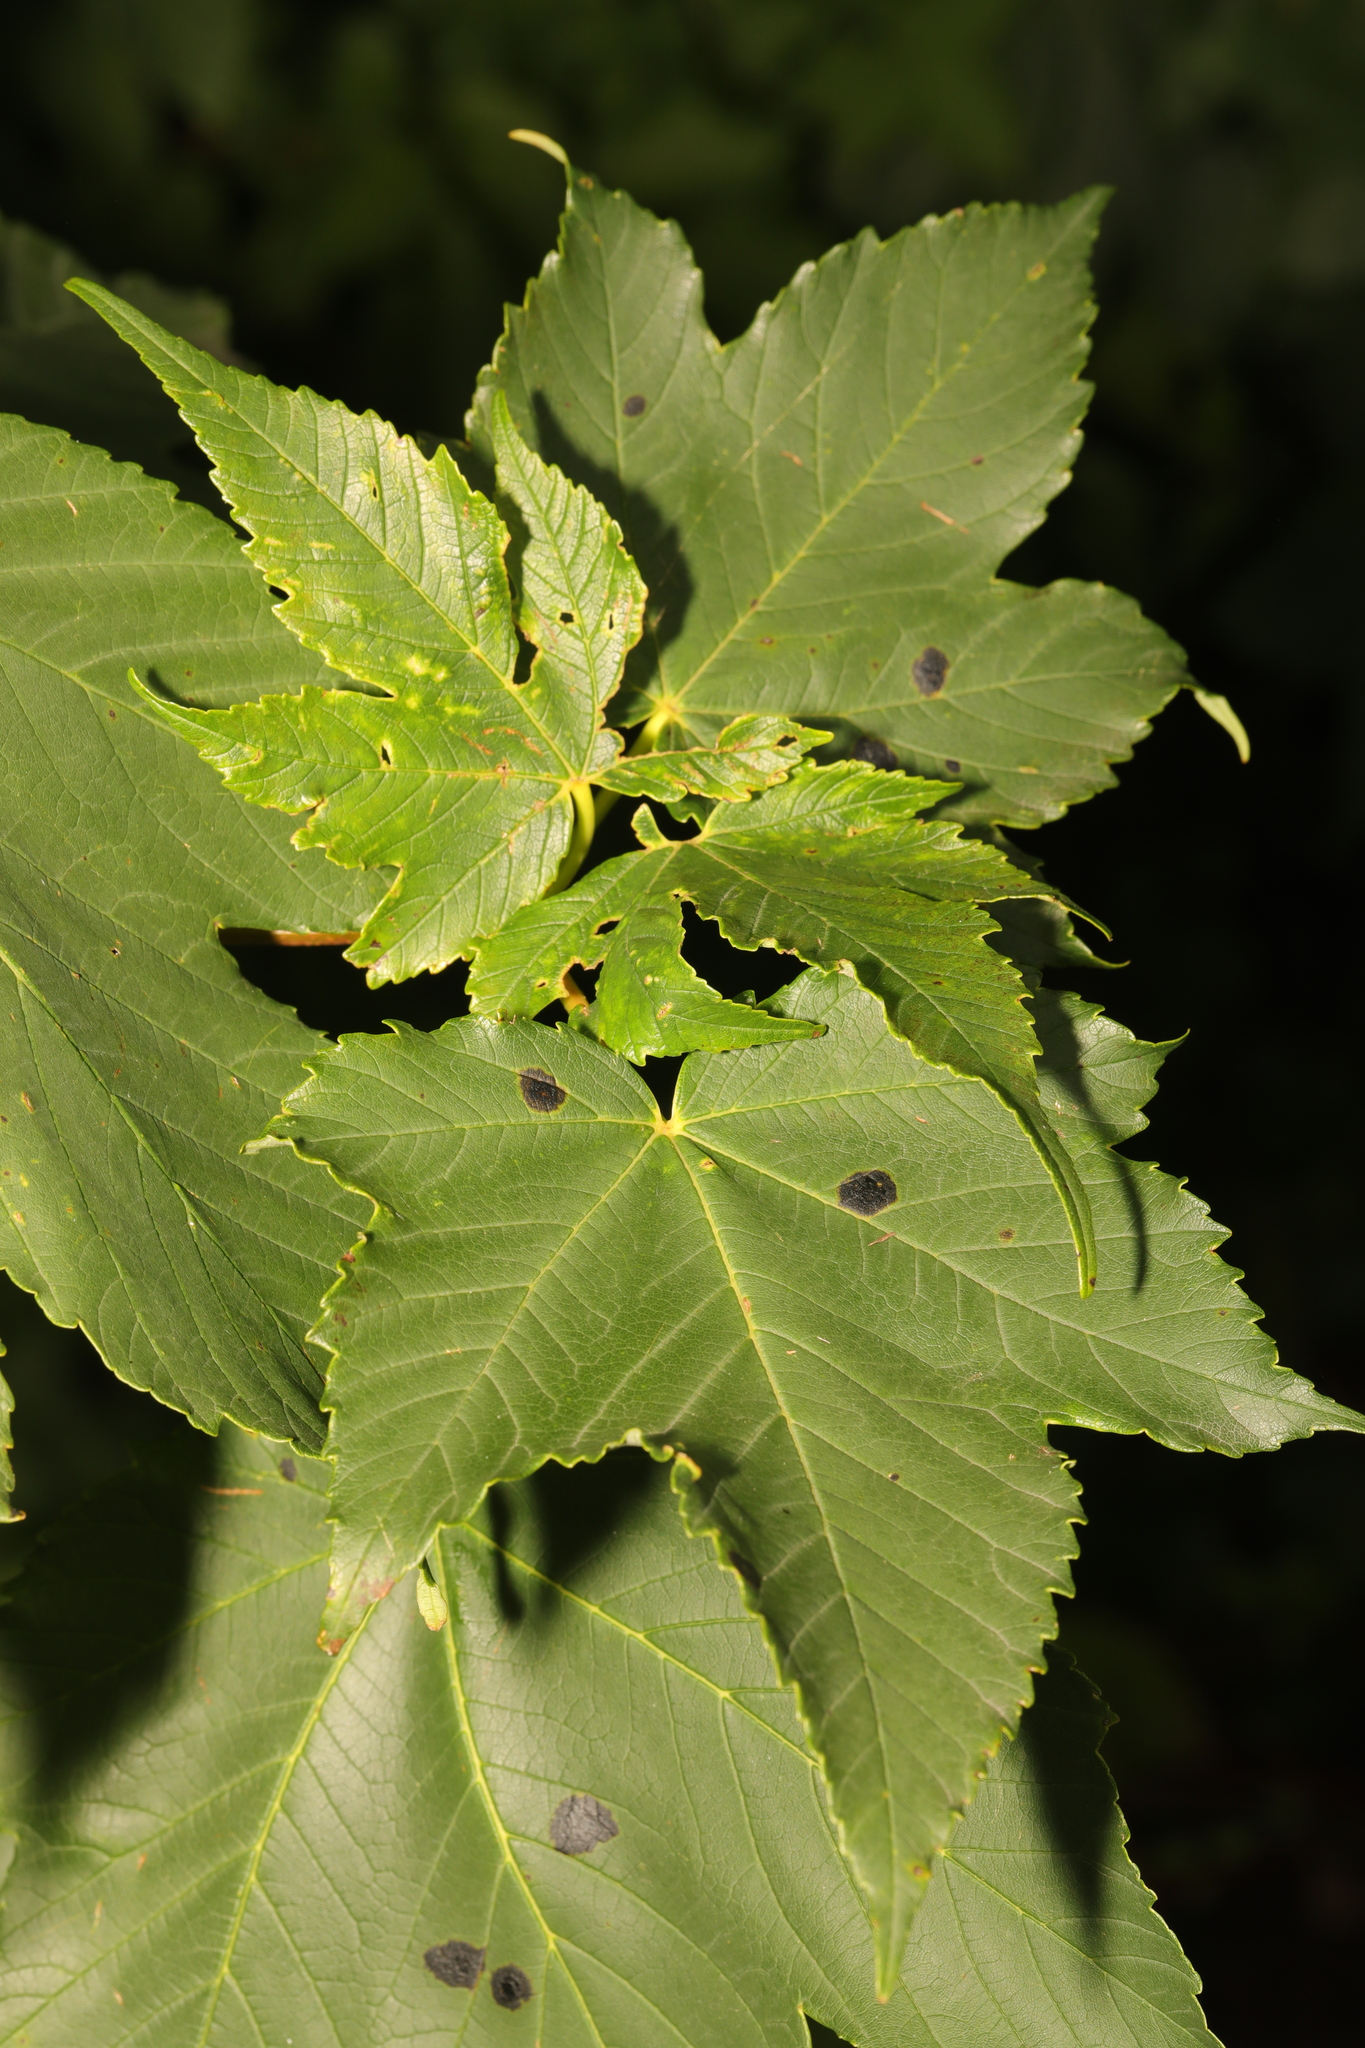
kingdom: Plantae
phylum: Tracheophyta
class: Magnoliopsida
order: Sapindales
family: Sapindaceae
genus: Acer
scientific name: Acer pseudoplatanus
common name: Sycamore
